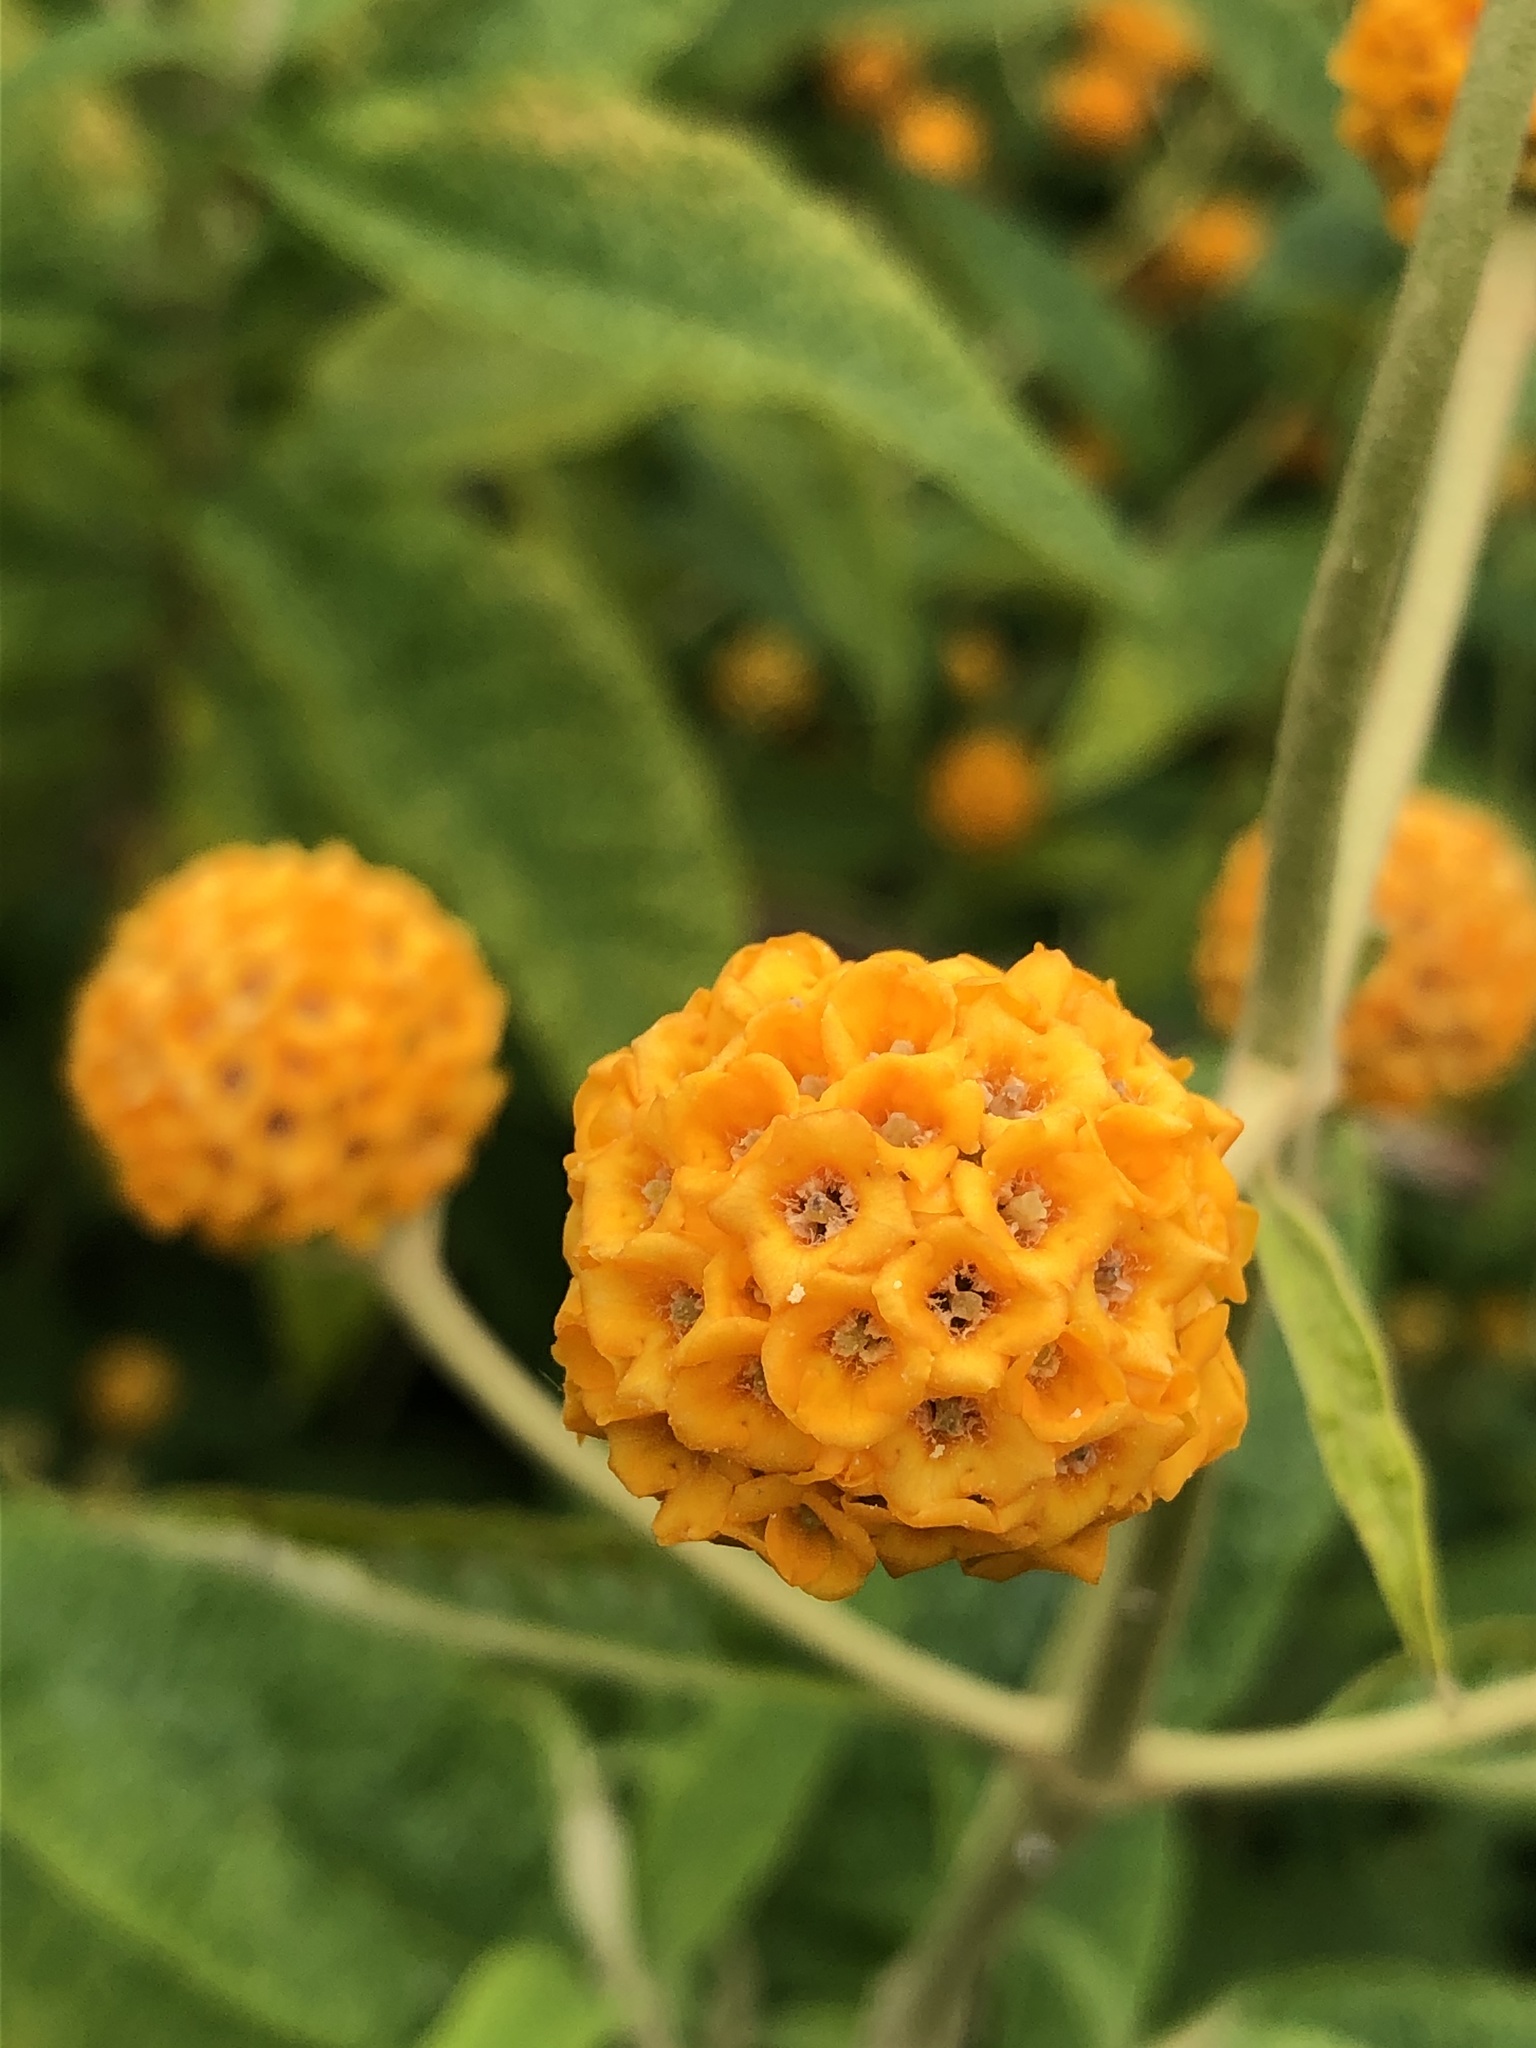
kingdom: Plantae
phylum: Tracheophyta
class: Magnoliopsida
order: Lamiales
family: Scrophulariaceae
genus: Buddleja
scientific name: Buddleja globosa
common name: Orange-ball-tree
